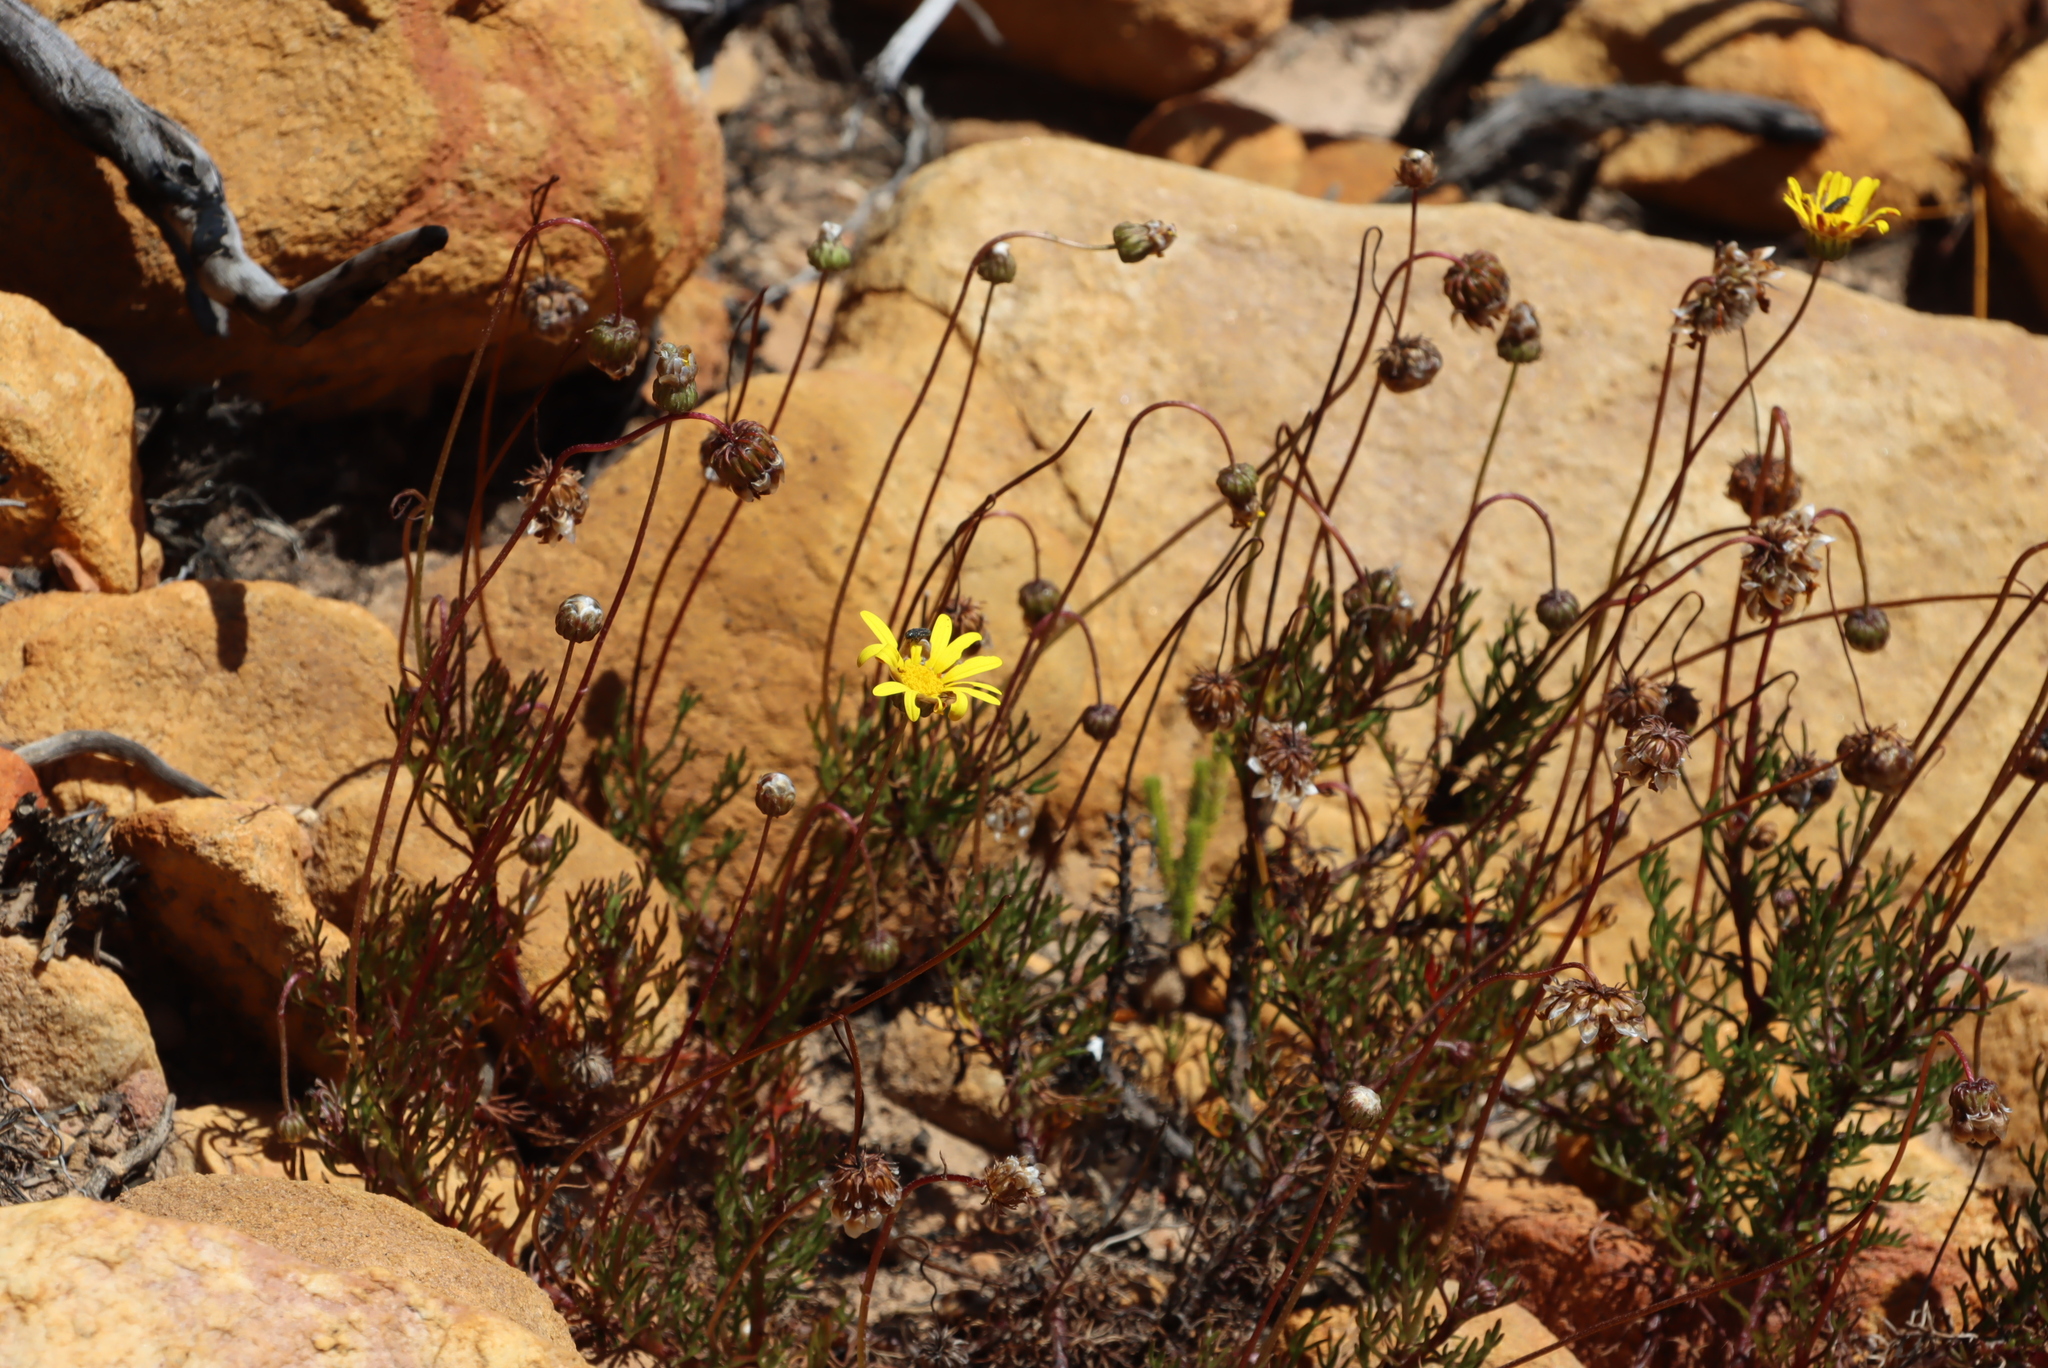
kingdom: Plantae
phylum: Tracheophyta
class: Magnoliopsida
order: Asterales
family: Asteraceae
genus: Ursinia
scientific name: Ursinia paleacea
